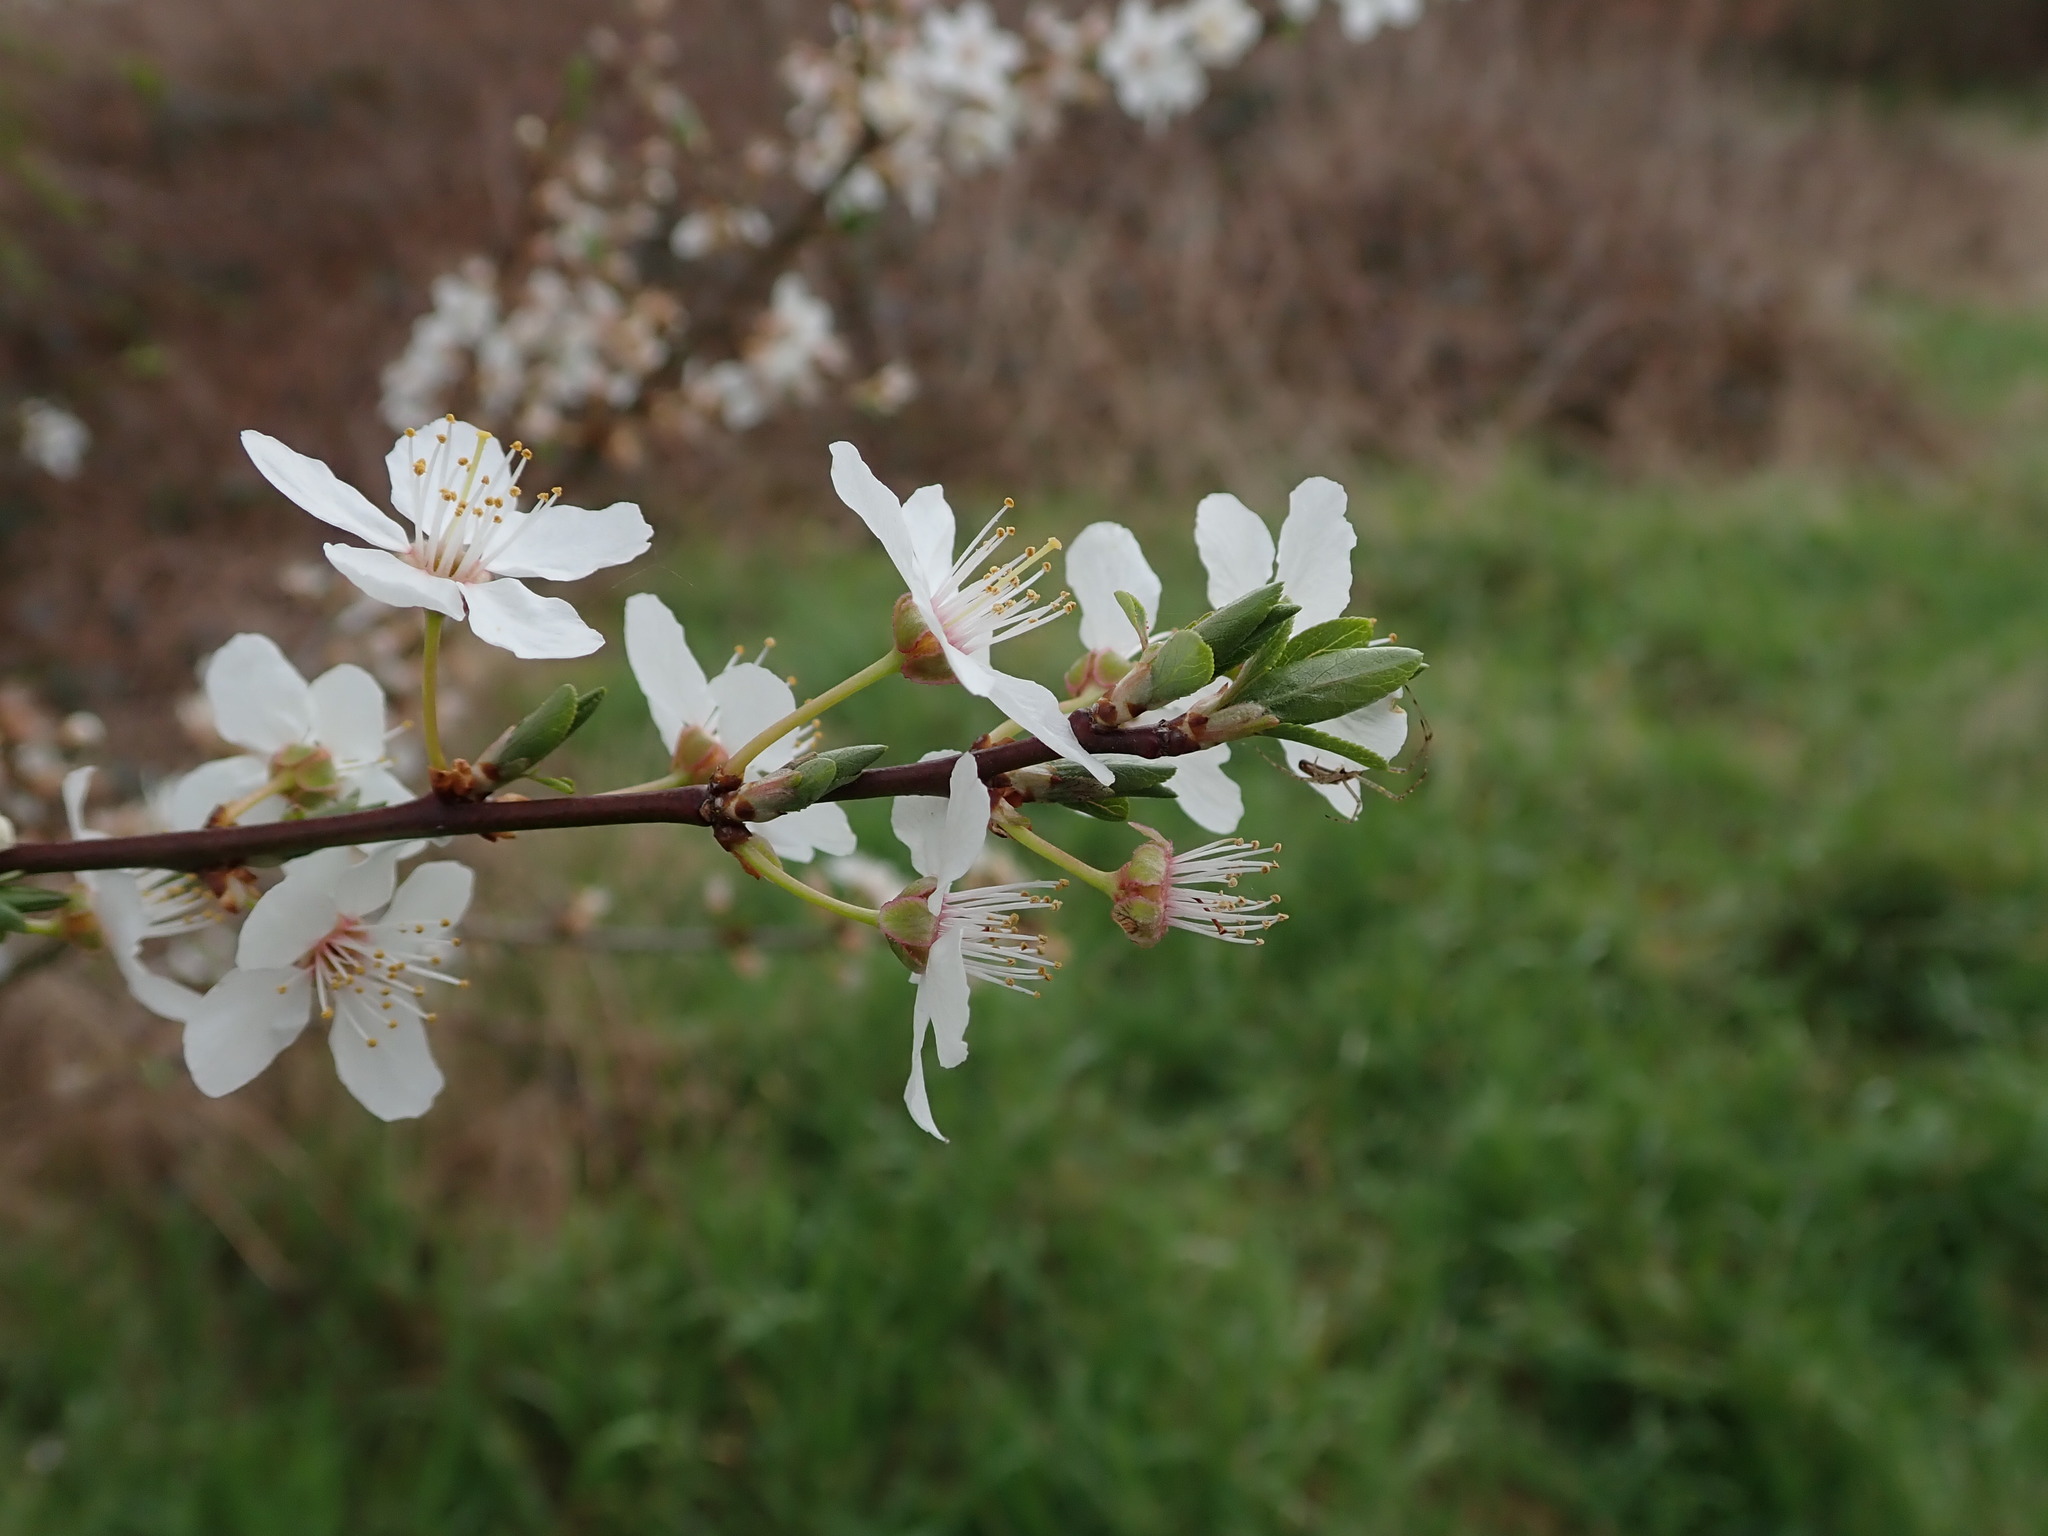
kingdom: Plantae
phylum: Tracheophyta
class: Magnoliopsida
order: Rosales
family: Rosaceae
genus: Prunus
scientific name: Prunus cerasifera
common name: Cherry plum
